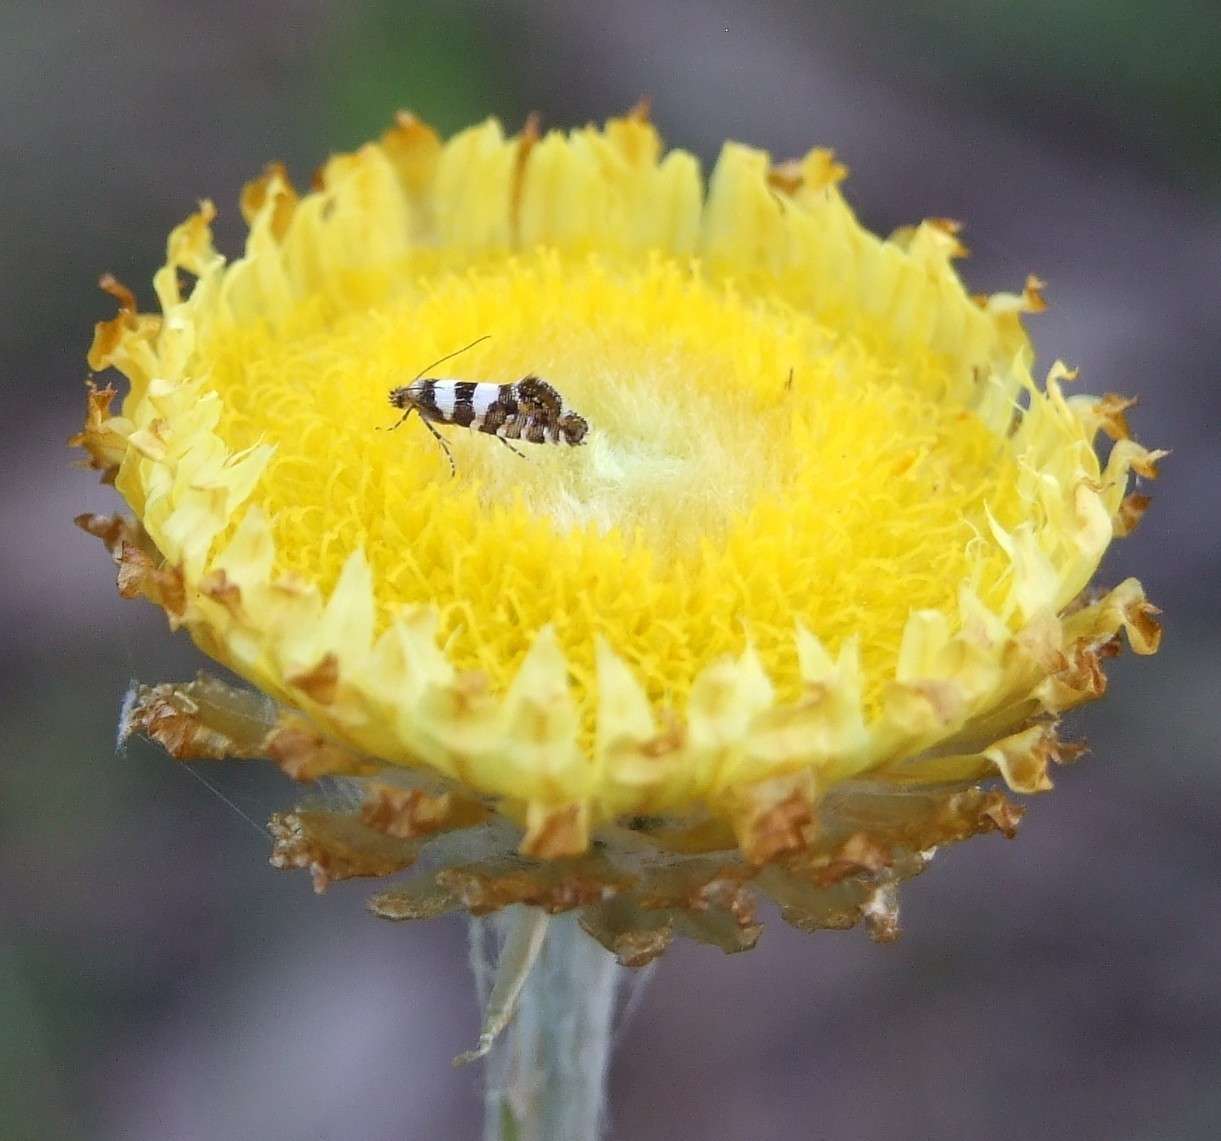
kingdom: Plantae
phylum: Tracheophyta
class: Magnoliopsida
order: Asterales
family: Asteraceae
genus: Coronidium
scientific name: Coronidium scorpioides
